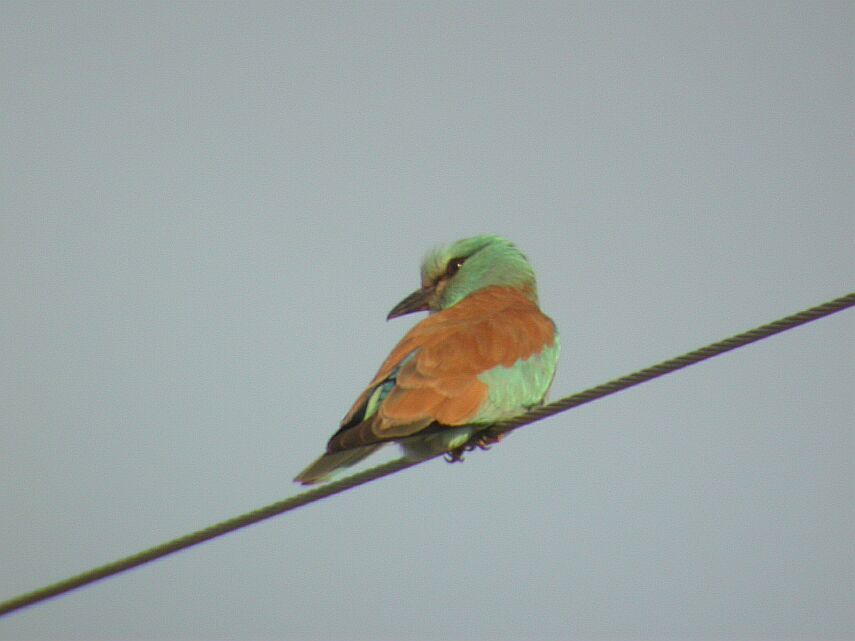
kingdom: Animalia
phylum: Chordata
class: Aves
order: Coraciiformes
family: Coraciidae
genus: Coracias
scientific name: Coracias garrulus
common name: European roller
